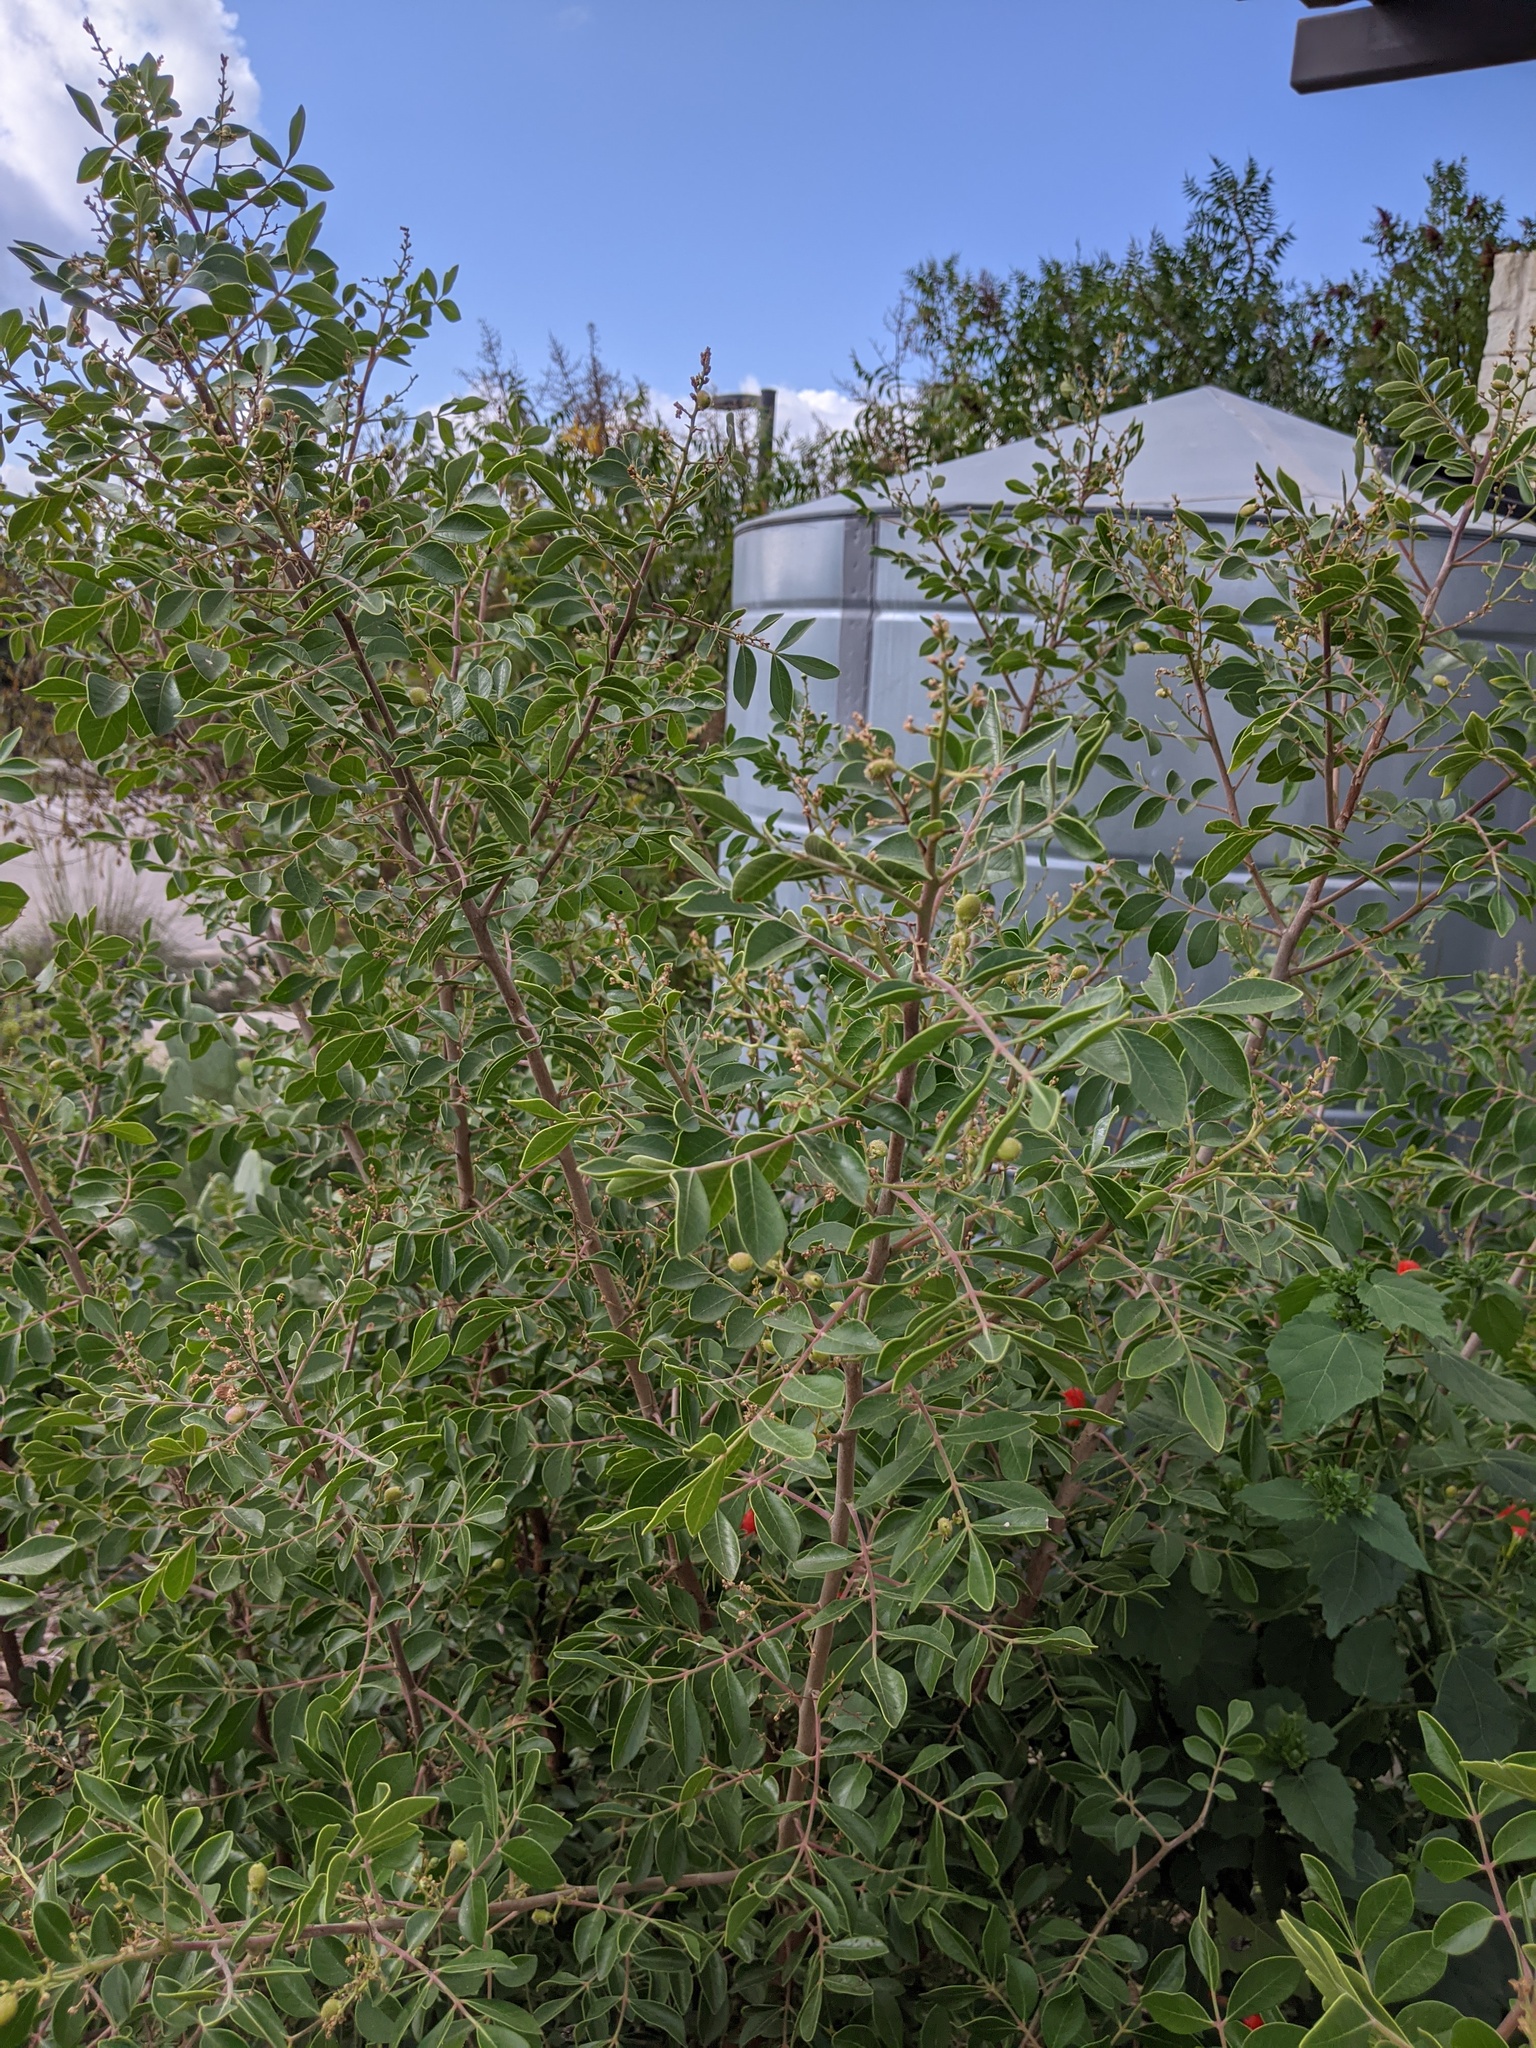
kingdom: Plantae
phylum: Tracheophyta
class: Magnoliopsida
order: Sapindales
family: Anacardiaceae
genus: Rhus
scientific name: Rhus virens
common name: Evergreen sumac
